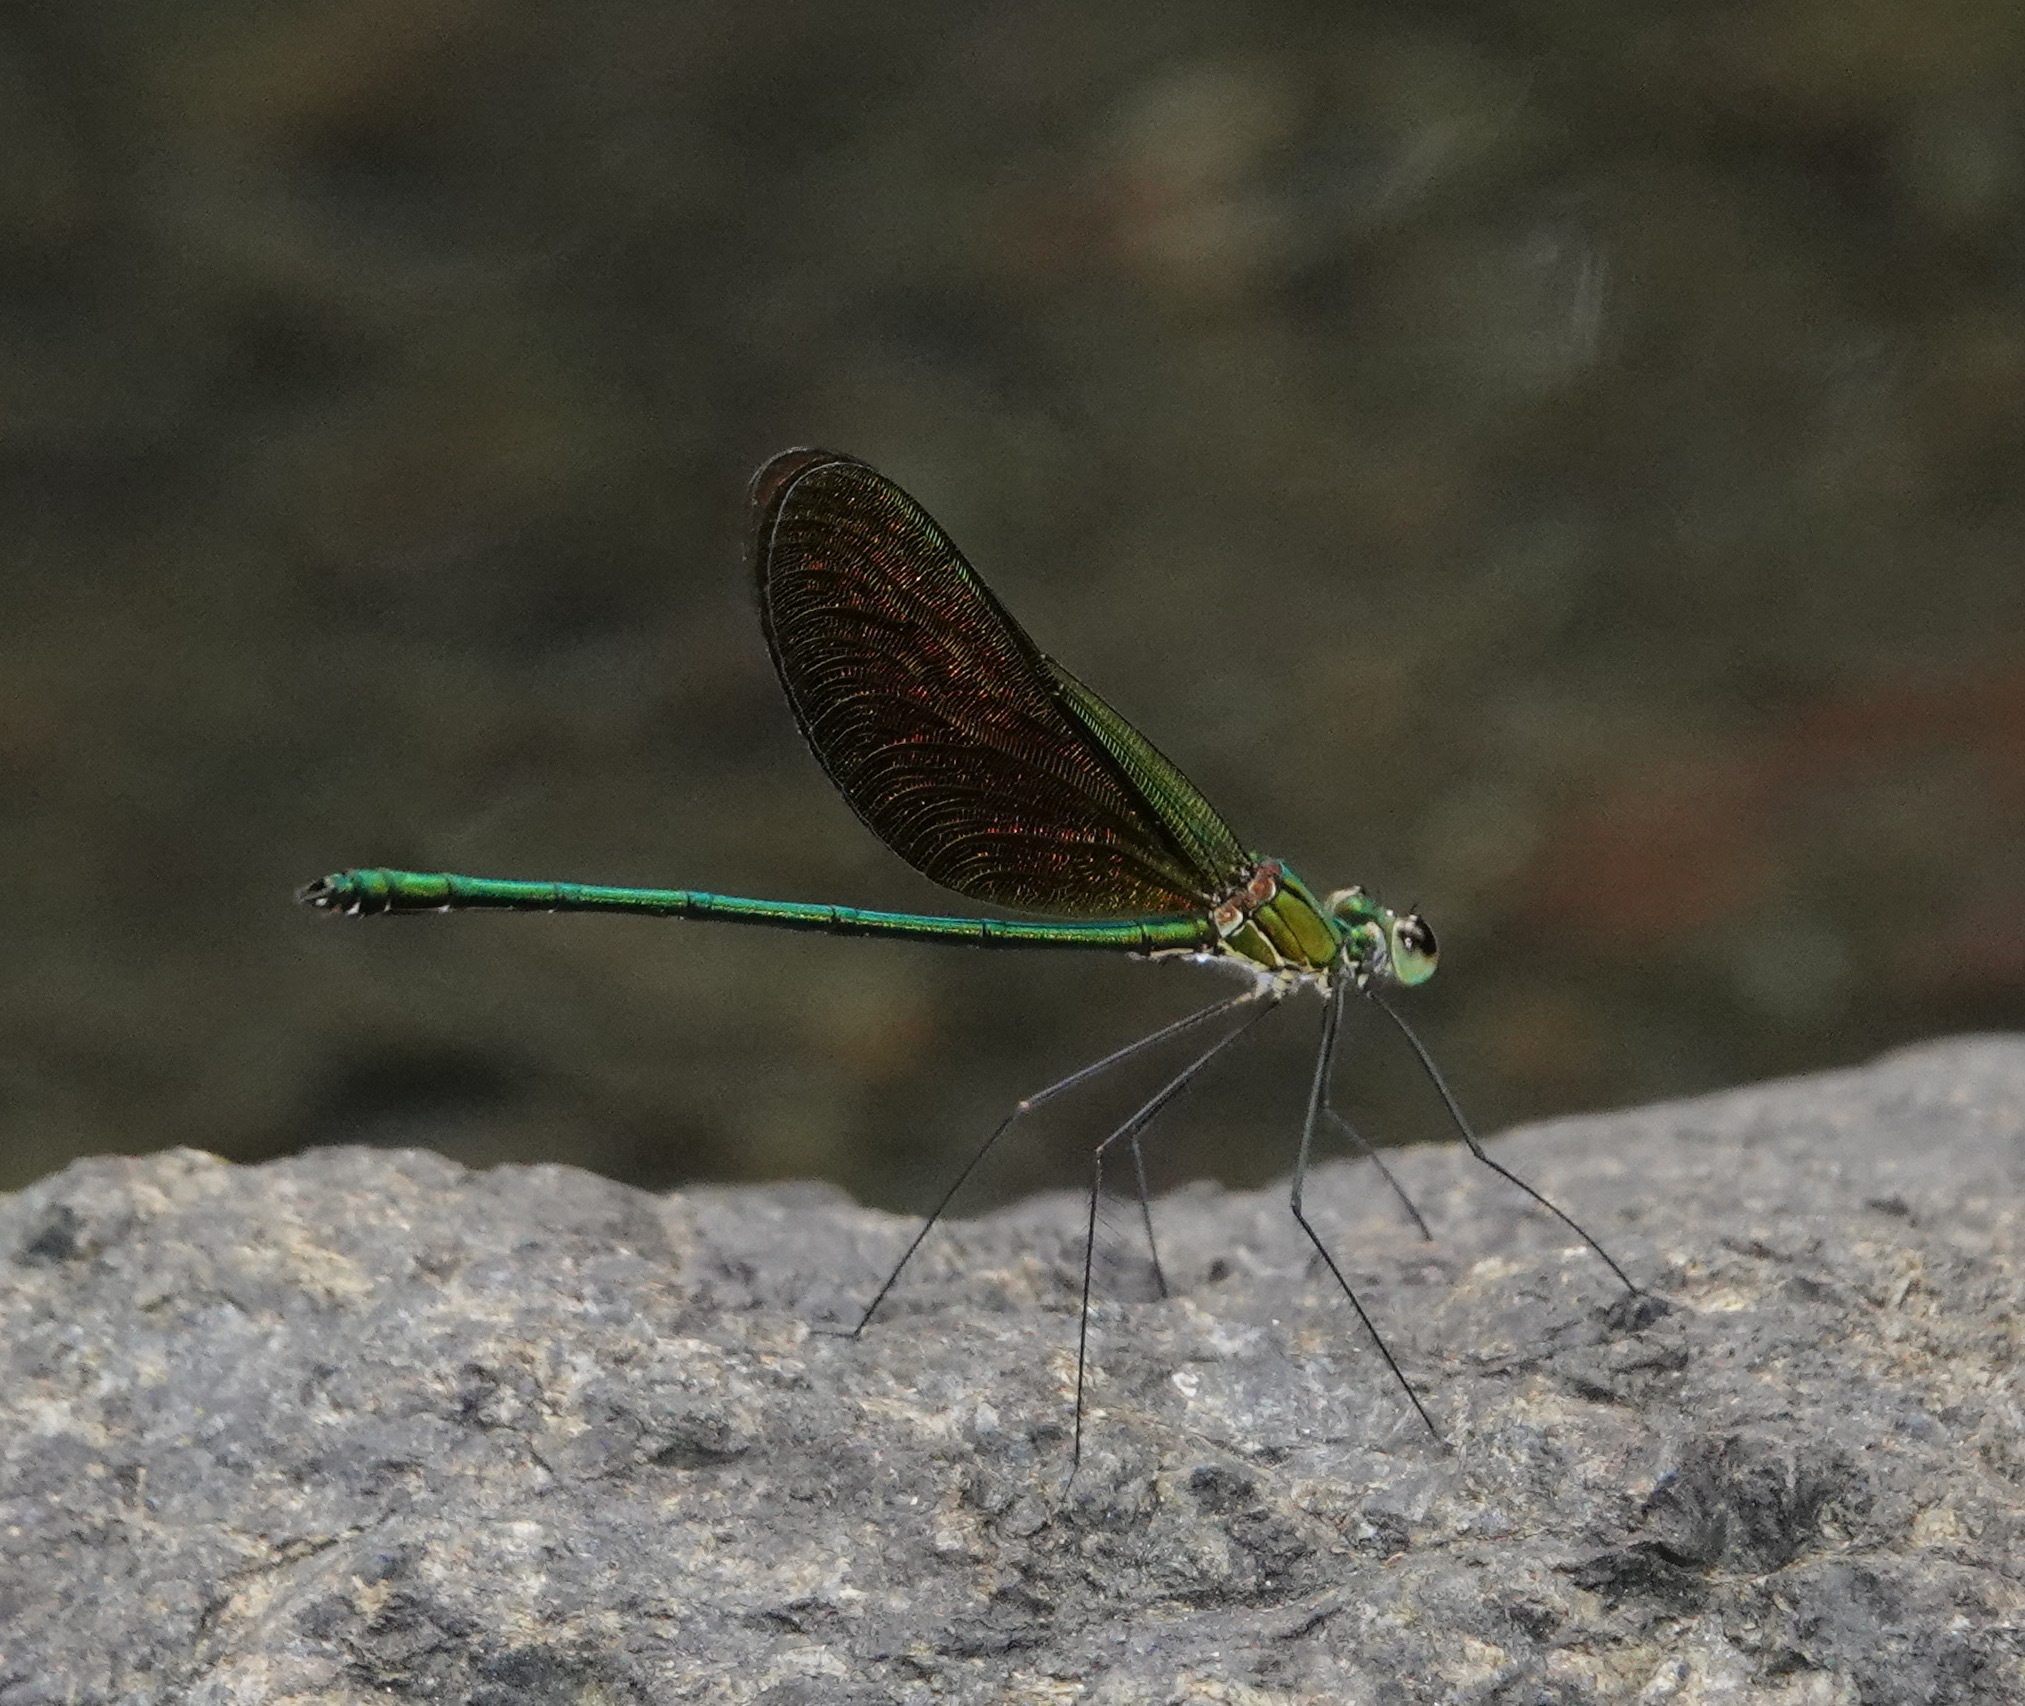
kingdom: Animalia
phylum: Arthropoda
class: Insecta
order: Odonata
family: Calopterygidae
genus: Neurobasis
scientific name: Neurobasis longipes
